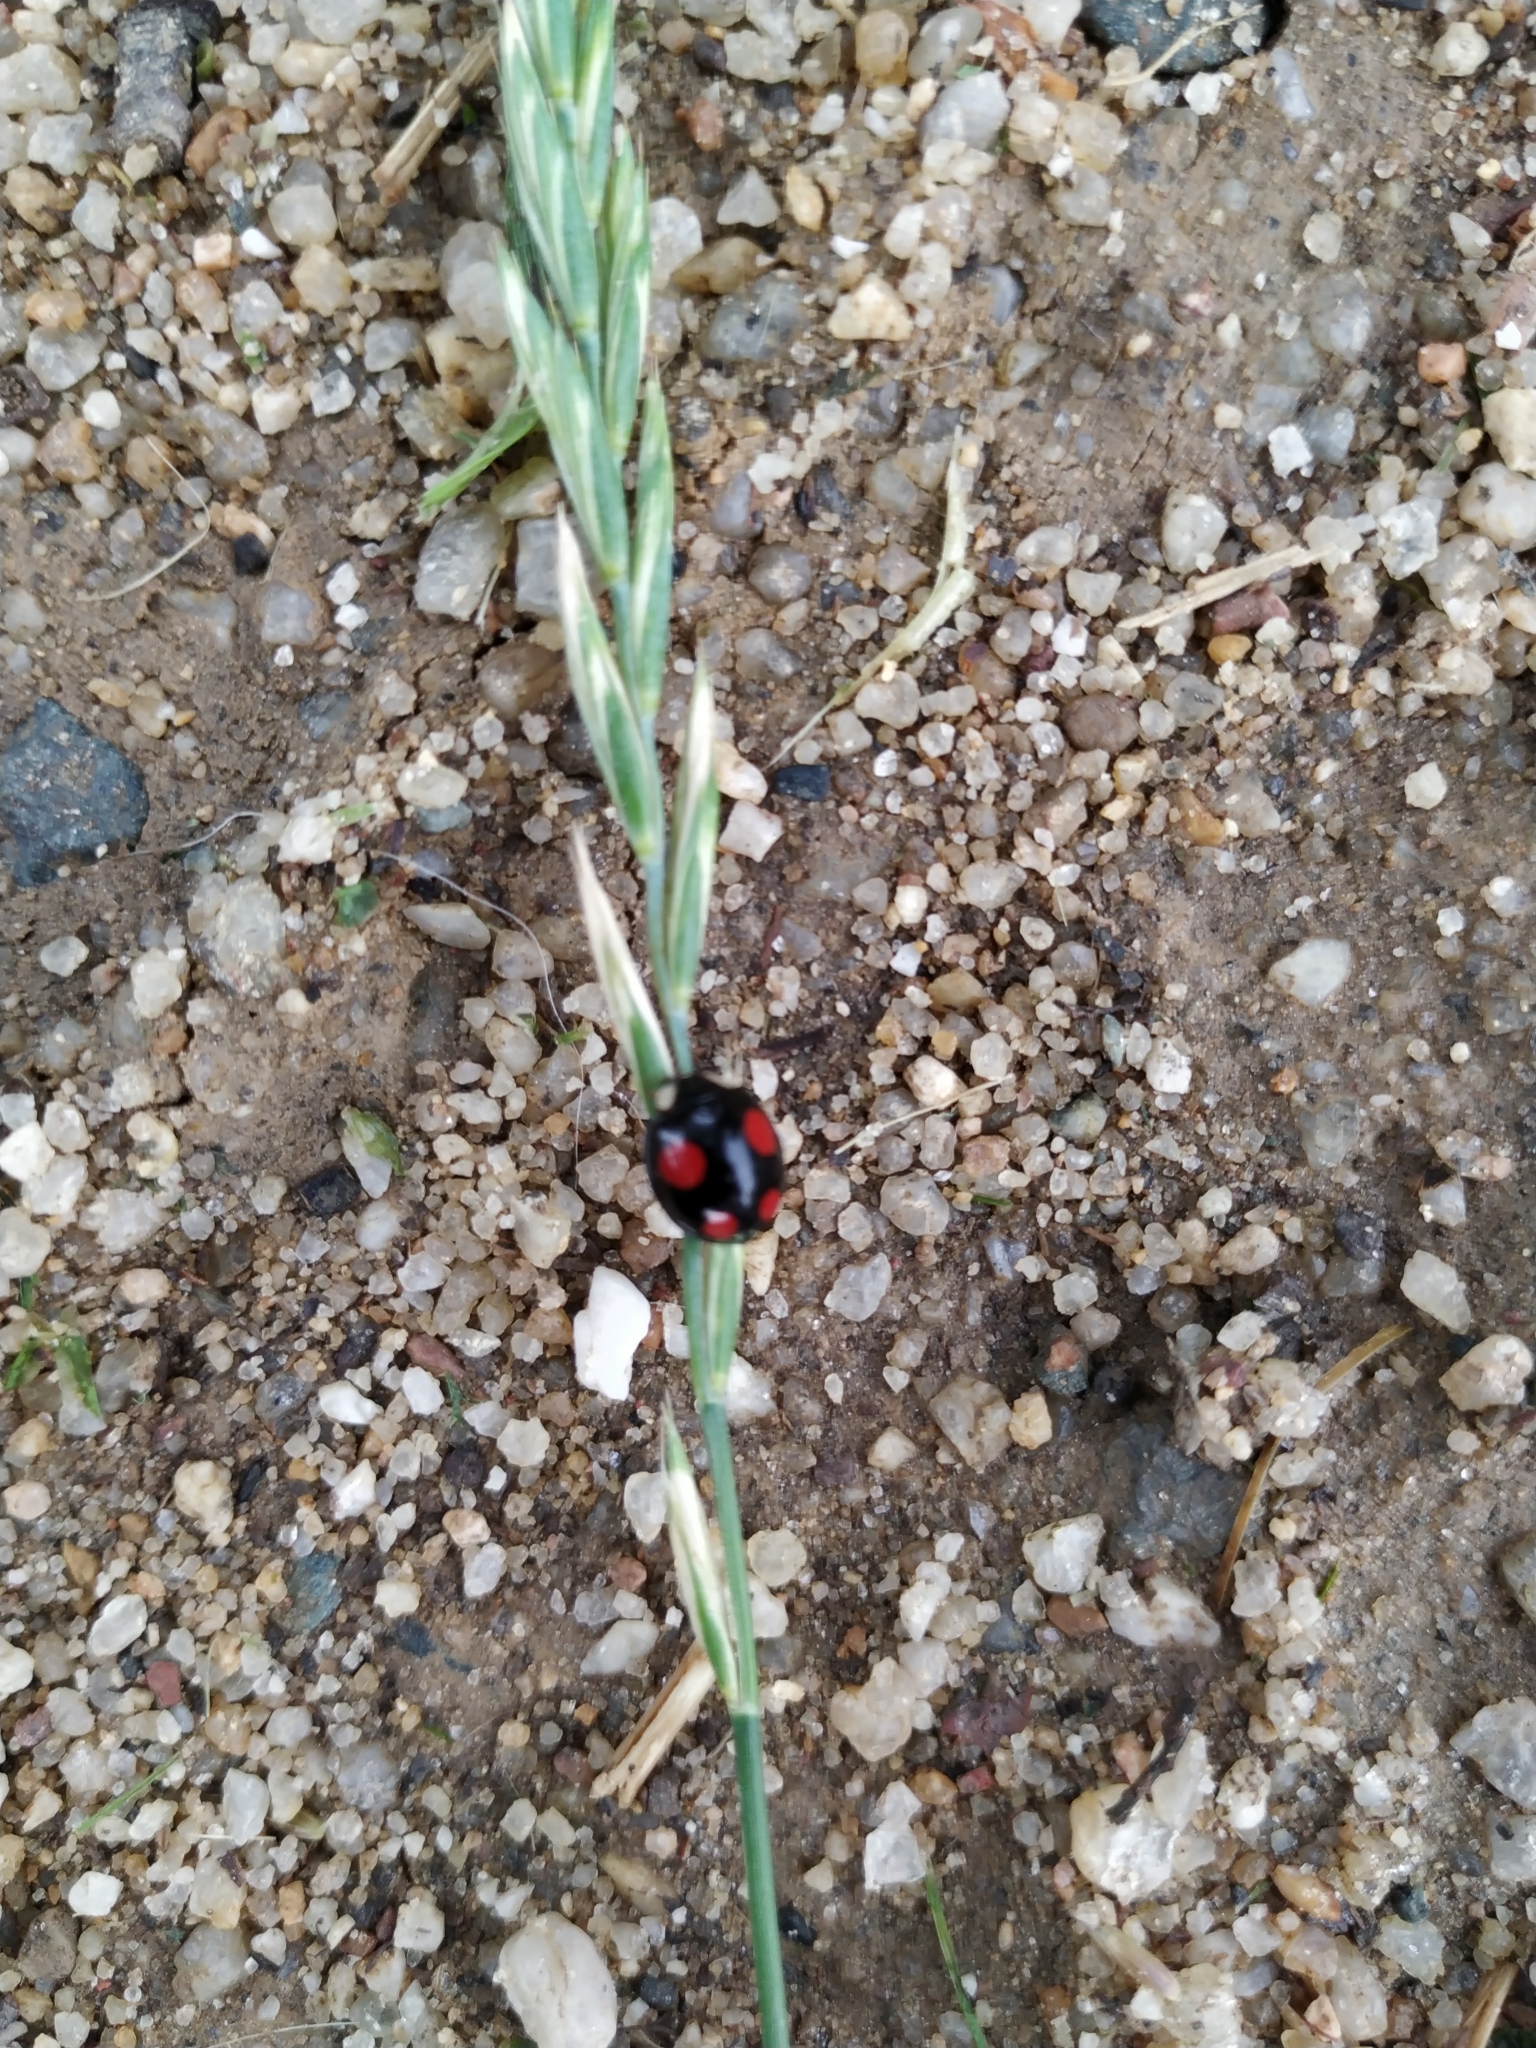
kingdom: Animalia
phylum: Arthropoda
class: Insecta
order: Coleoptera
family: Coccinellidae
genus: Harmonia
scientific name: Harmonia axyridis
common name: Harlequin ladybird
